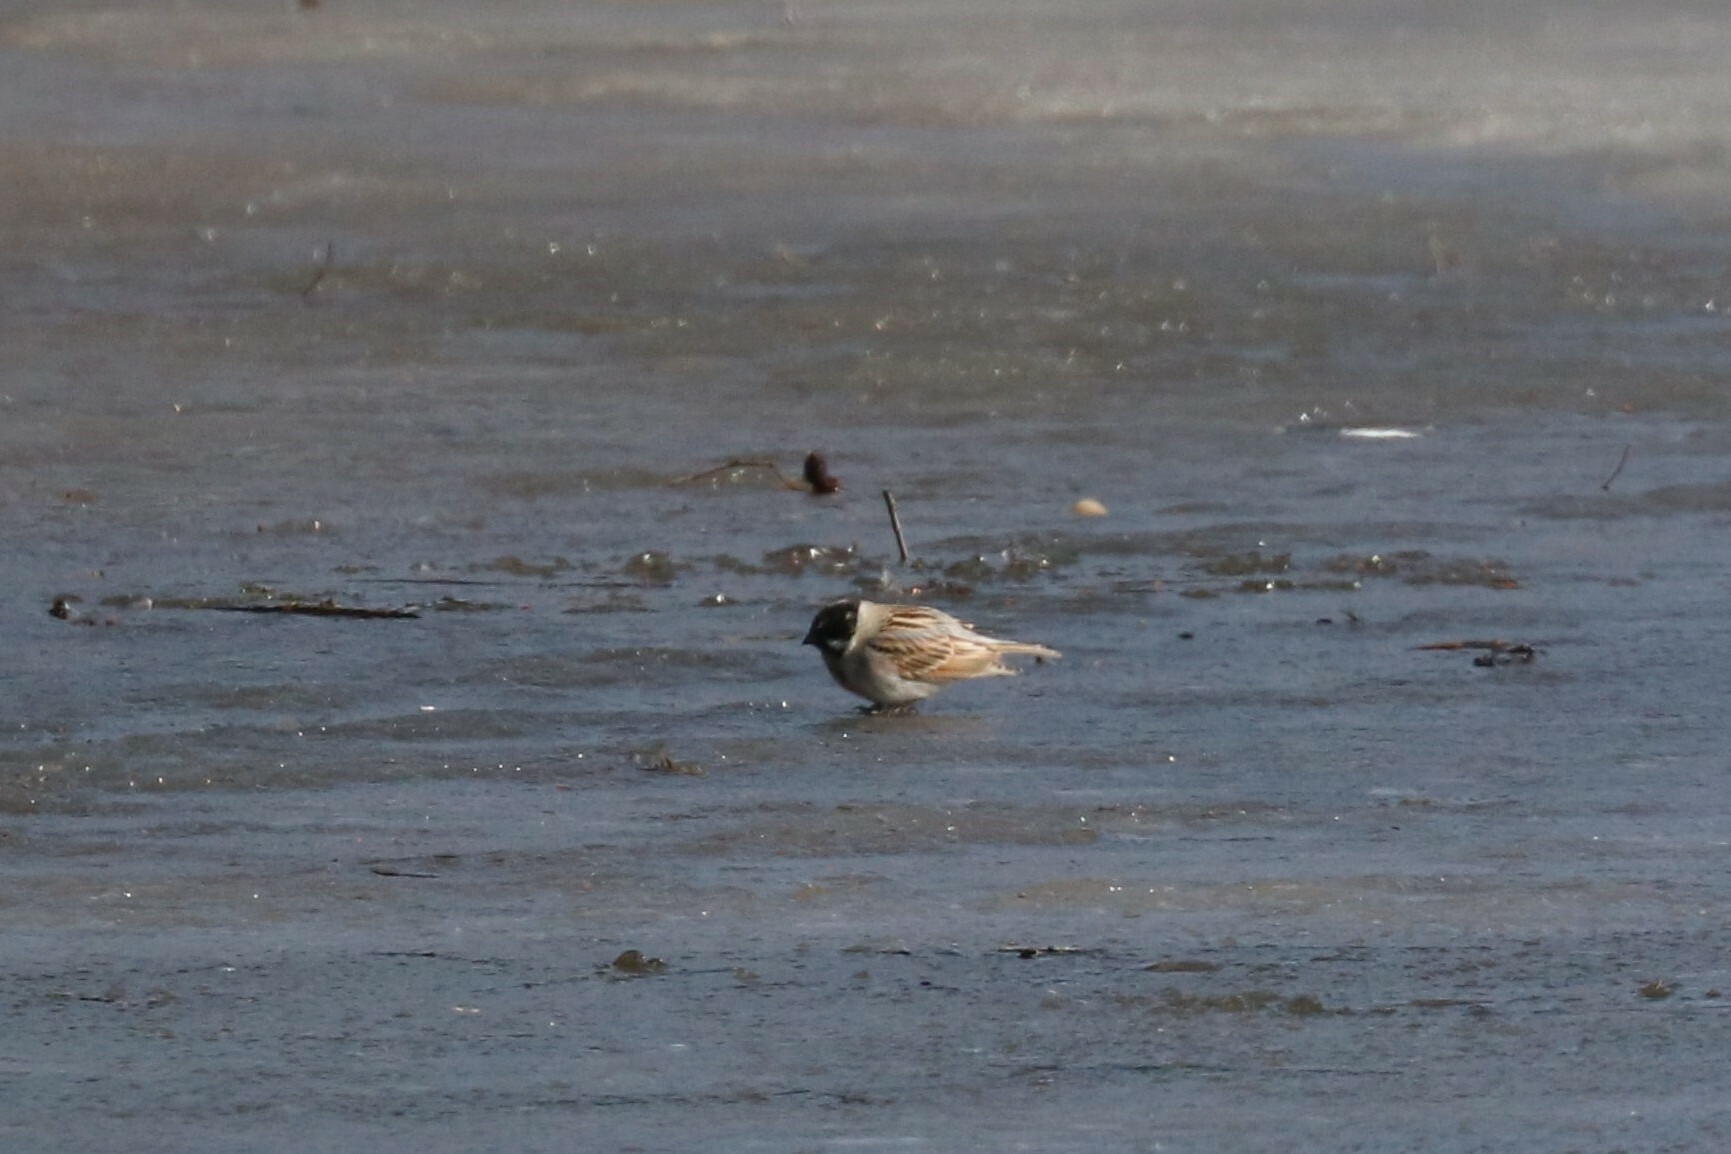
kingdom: Animalia
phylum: Chordata
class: Aves
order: Passeriformes
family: Emberizidae
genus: Emberiza
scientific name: Emberiza schoeniclus
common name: Reed bunting
